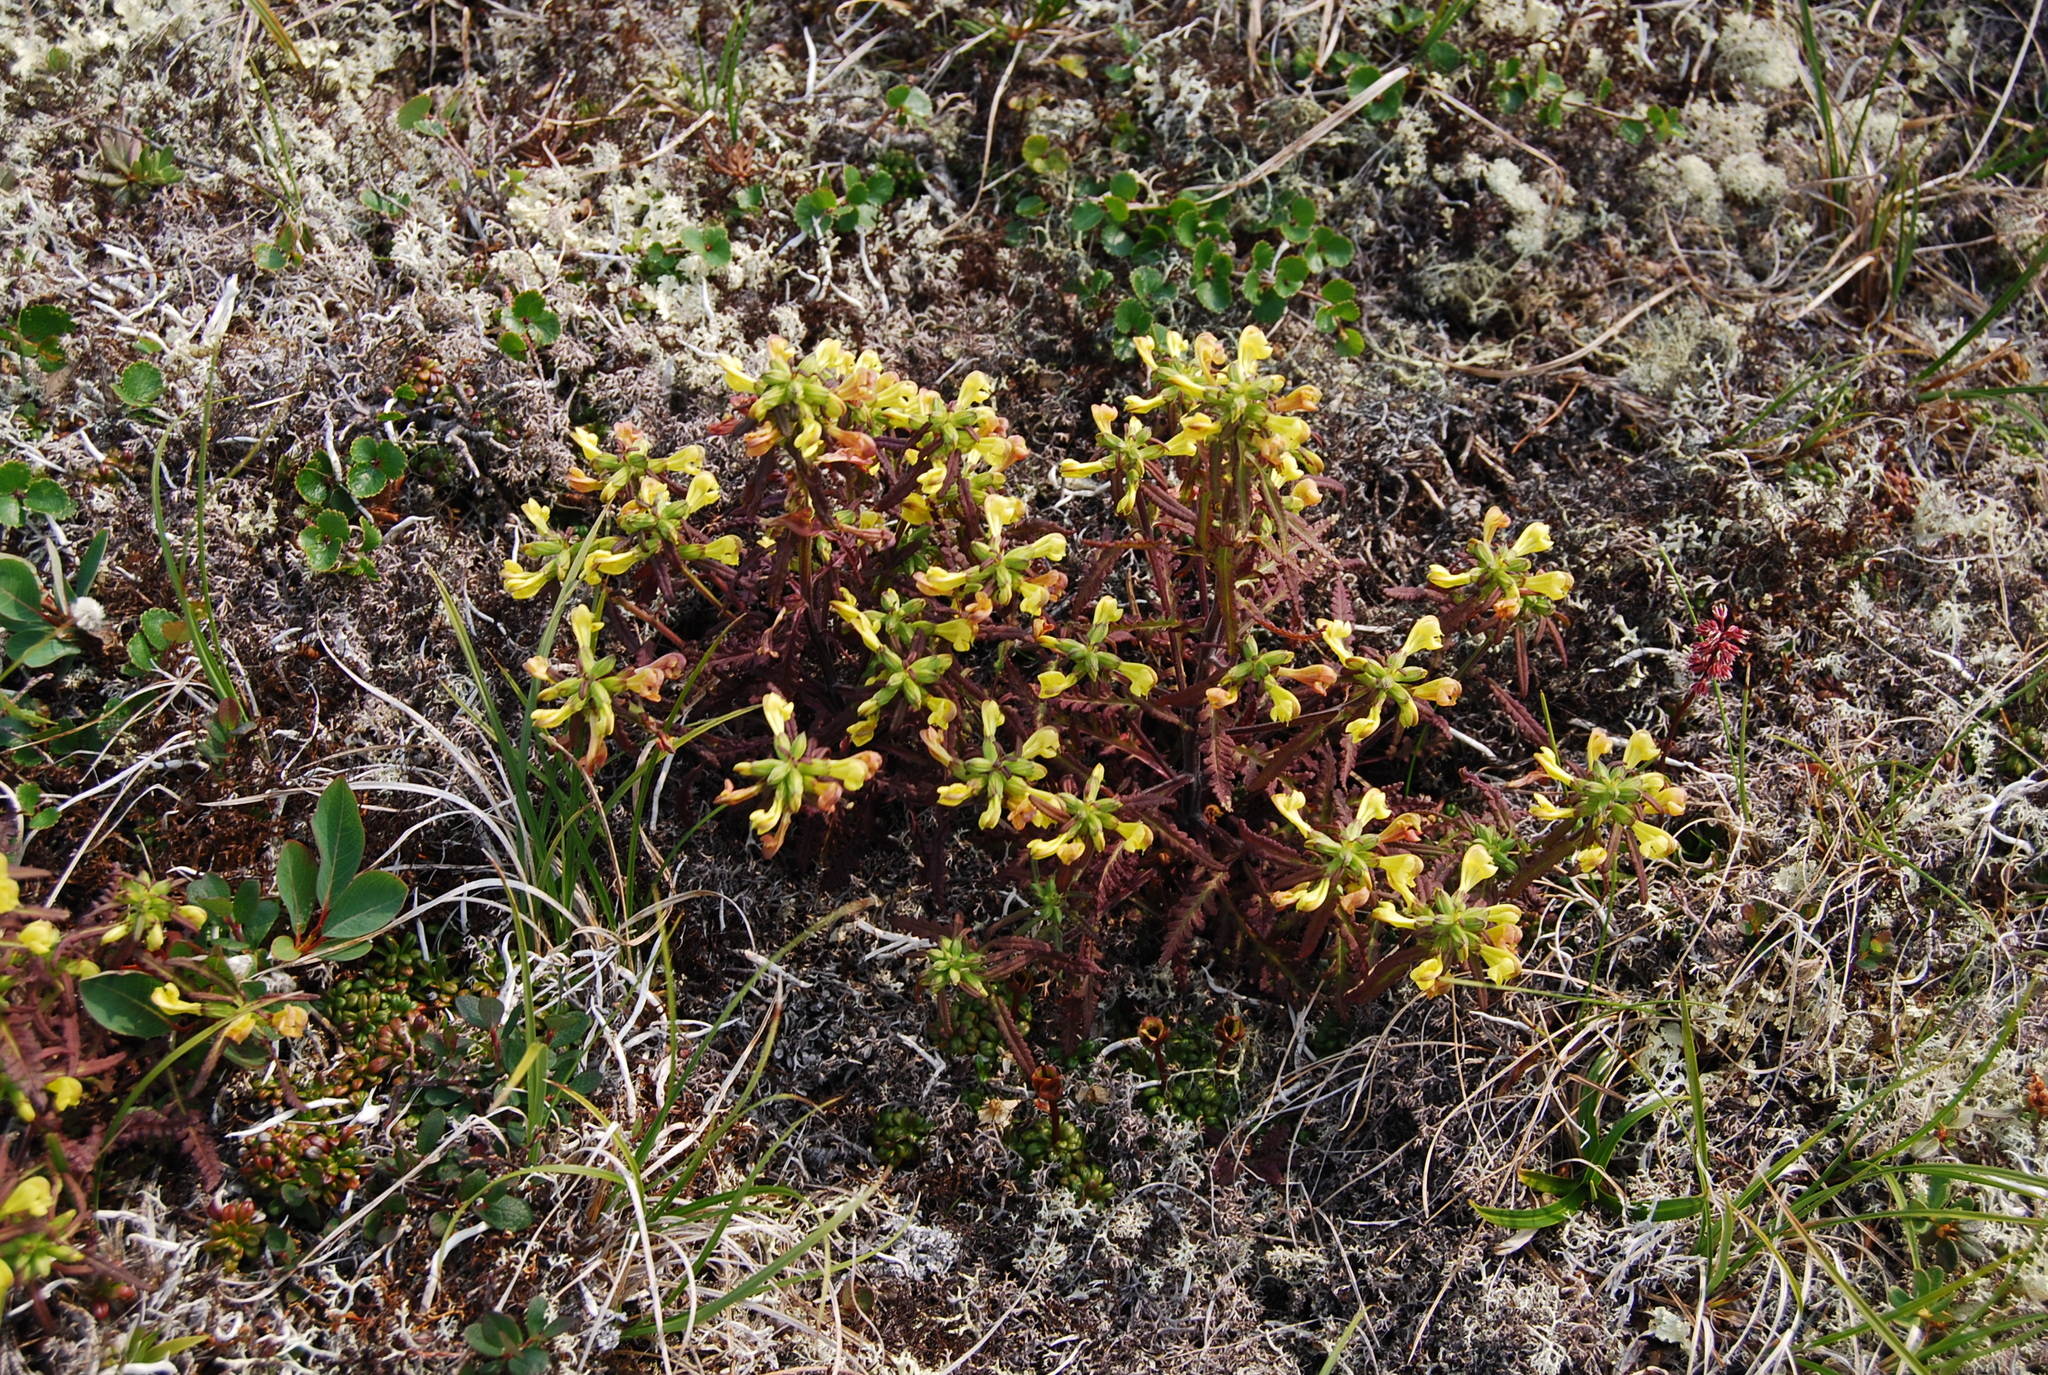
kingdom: Plantae
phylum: Tracheophyta
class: Magnoliopsida
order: Lamiales
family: Orobanchaceae
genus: Pedicularis
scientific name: Pedicularis labradorica
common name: Labrador lousewort
